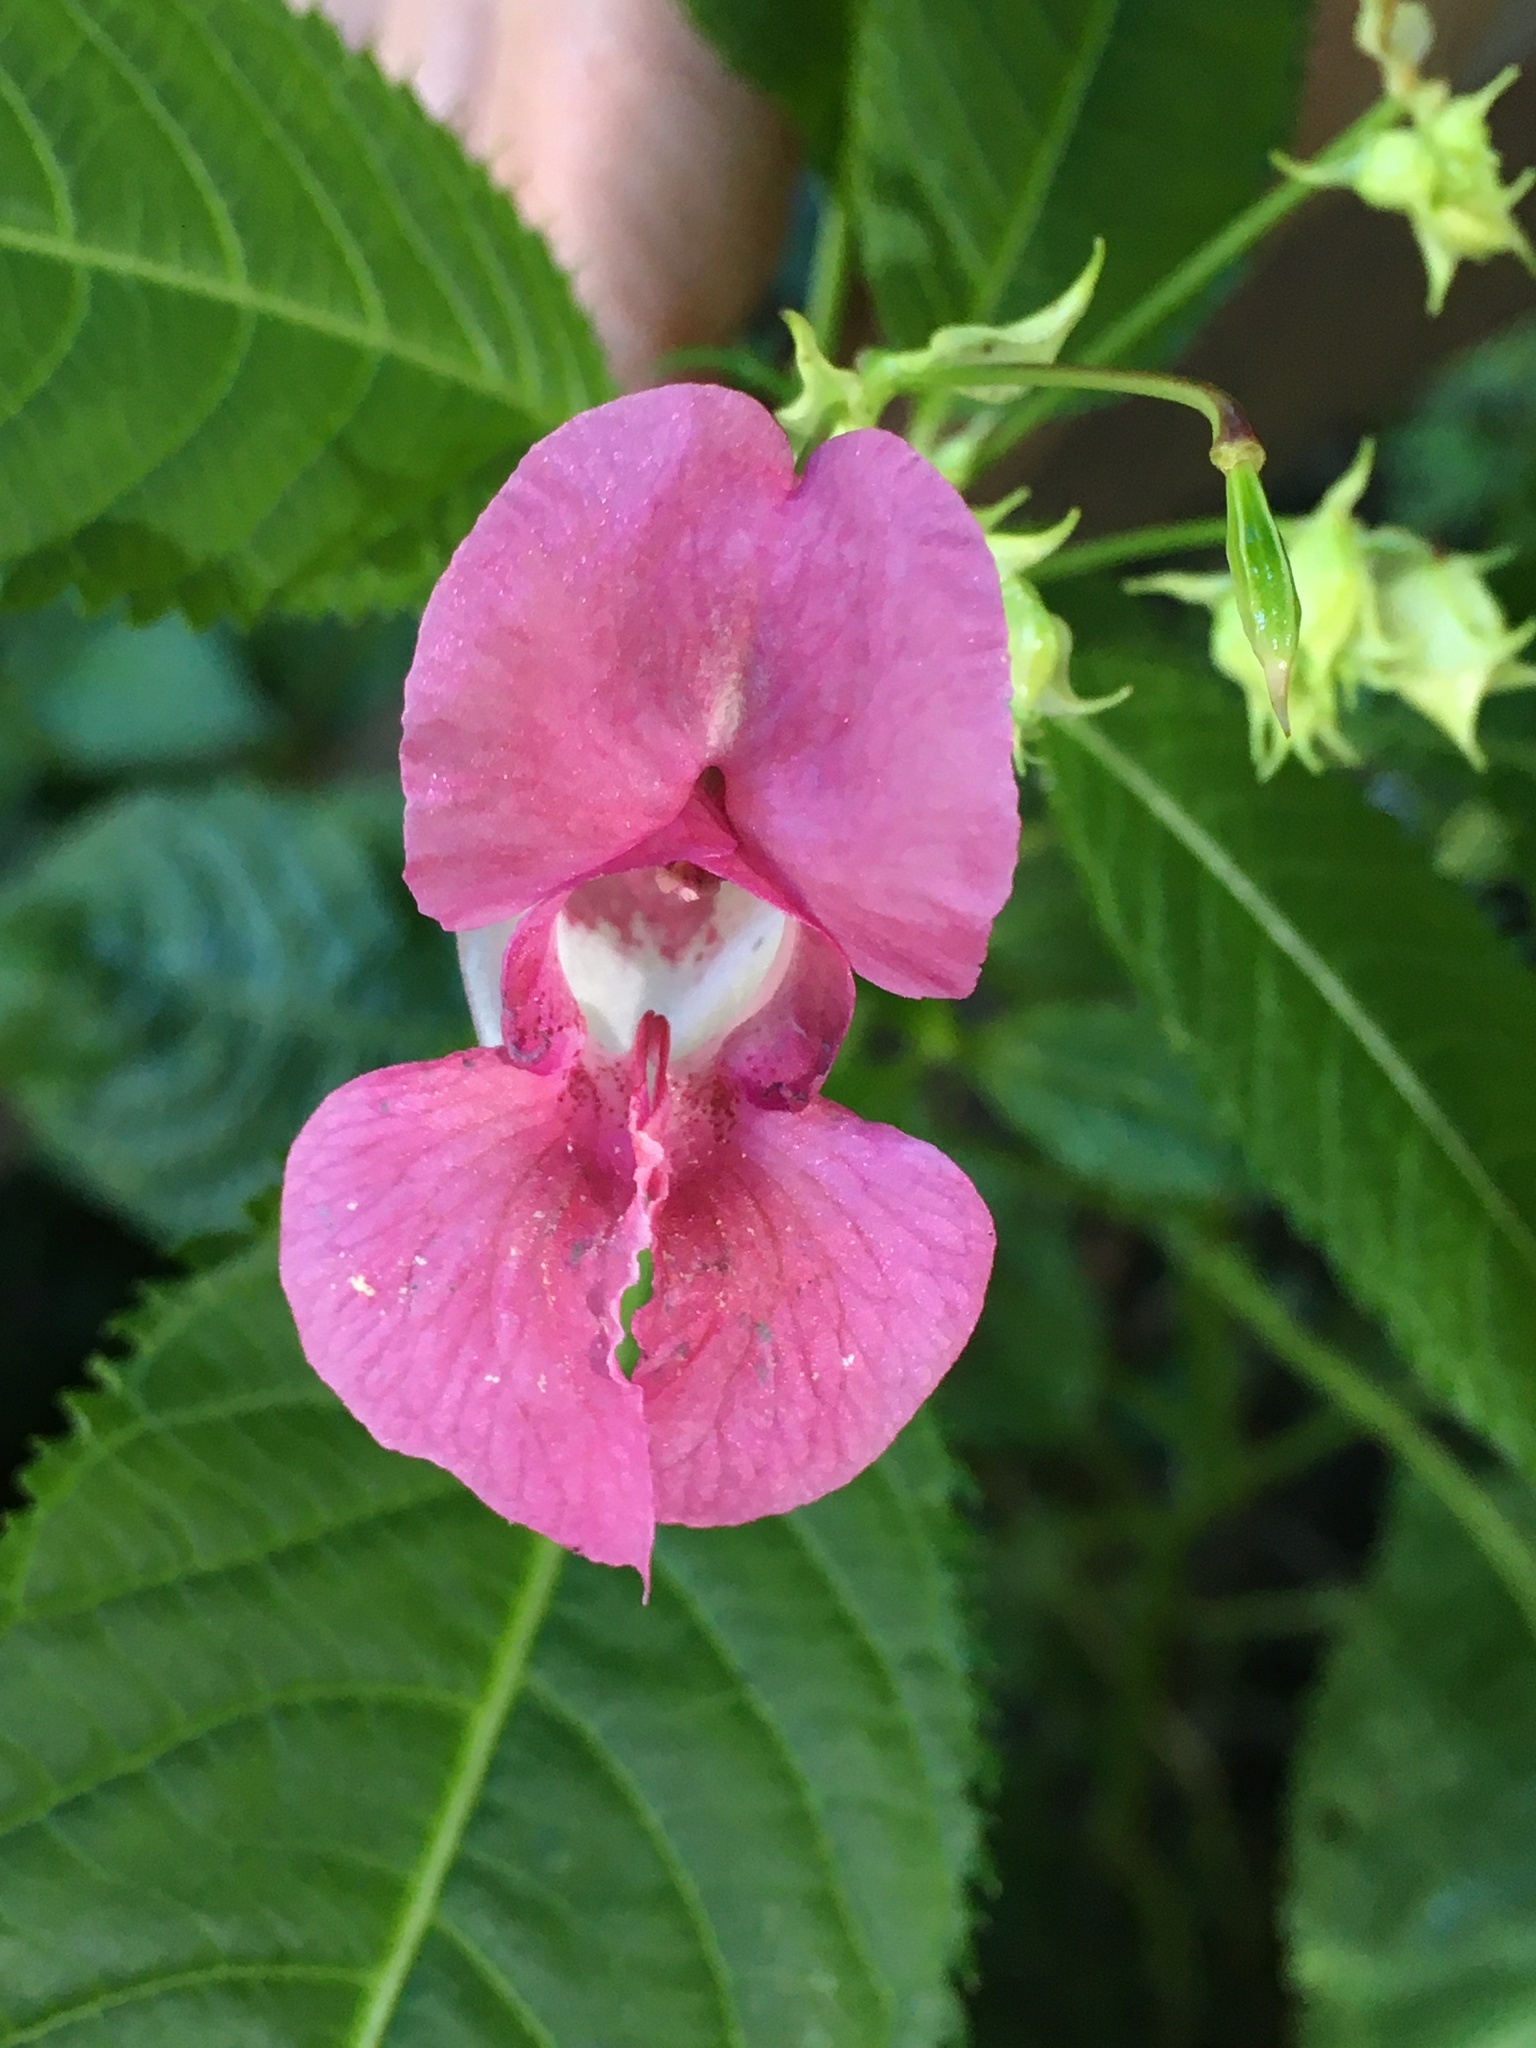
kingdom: Plantae
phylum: Tracheophyta
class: Magnoliopsida
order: Ericales
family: Balsaminaceae
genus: Impatiens
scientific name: Impatiens glandulifera
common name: Himalayan balsam
